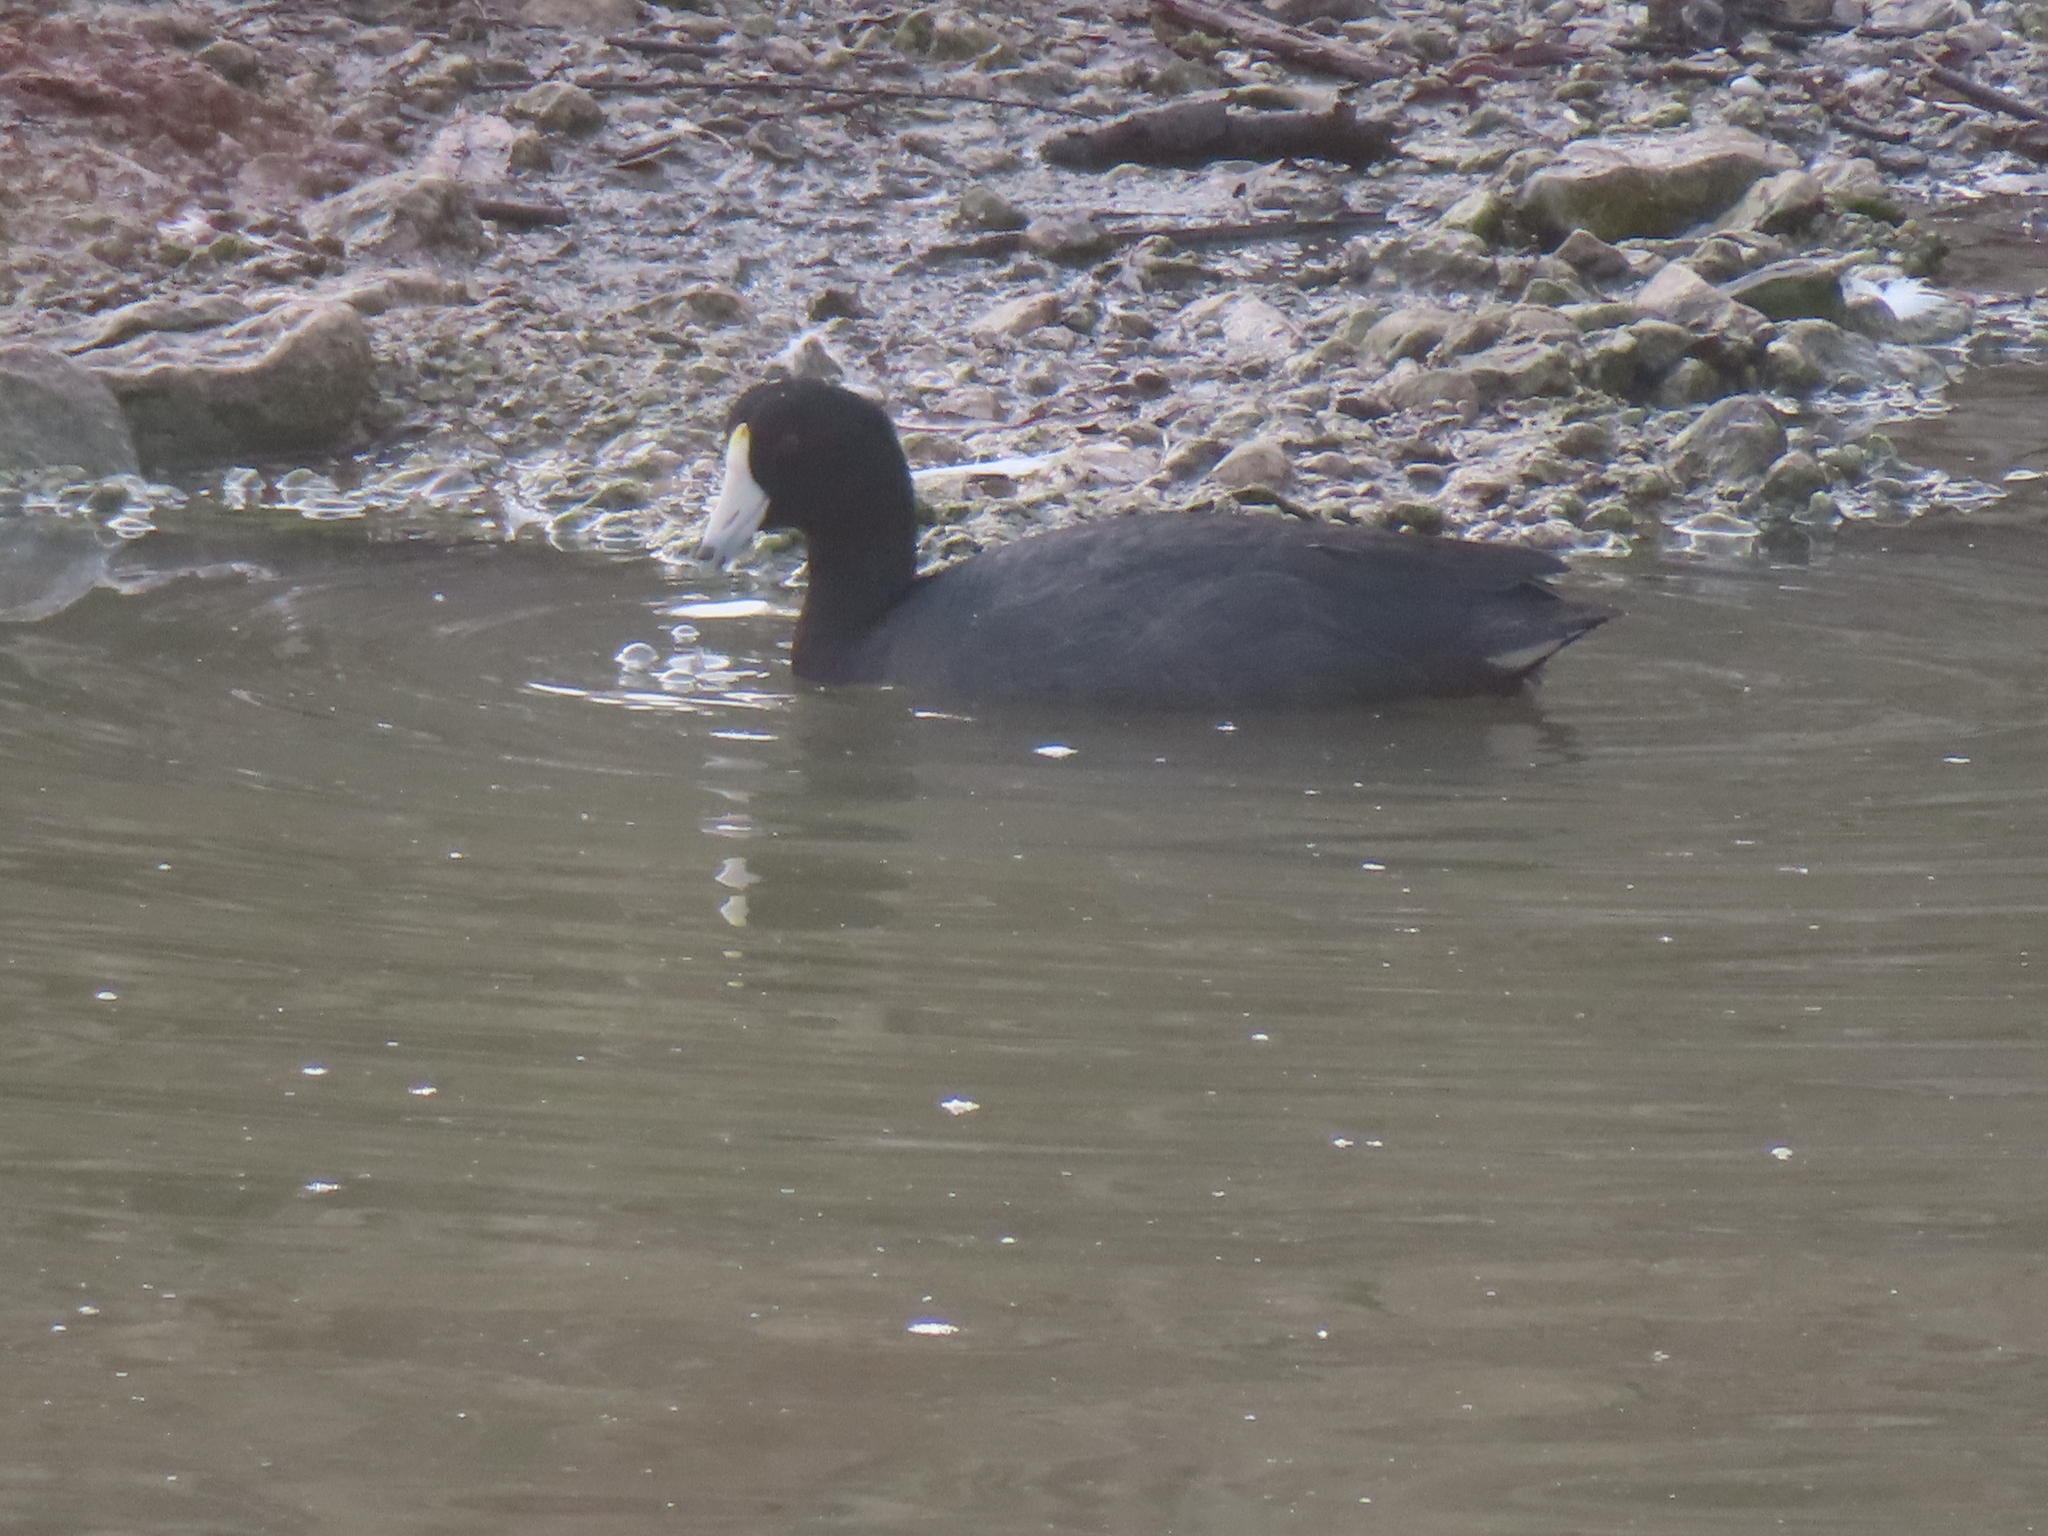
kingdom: Animalia
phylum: Chordata
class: Aves
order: Gruiformes
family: Rallidae
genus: Fulica
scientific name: Fulica americana
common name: American coot
